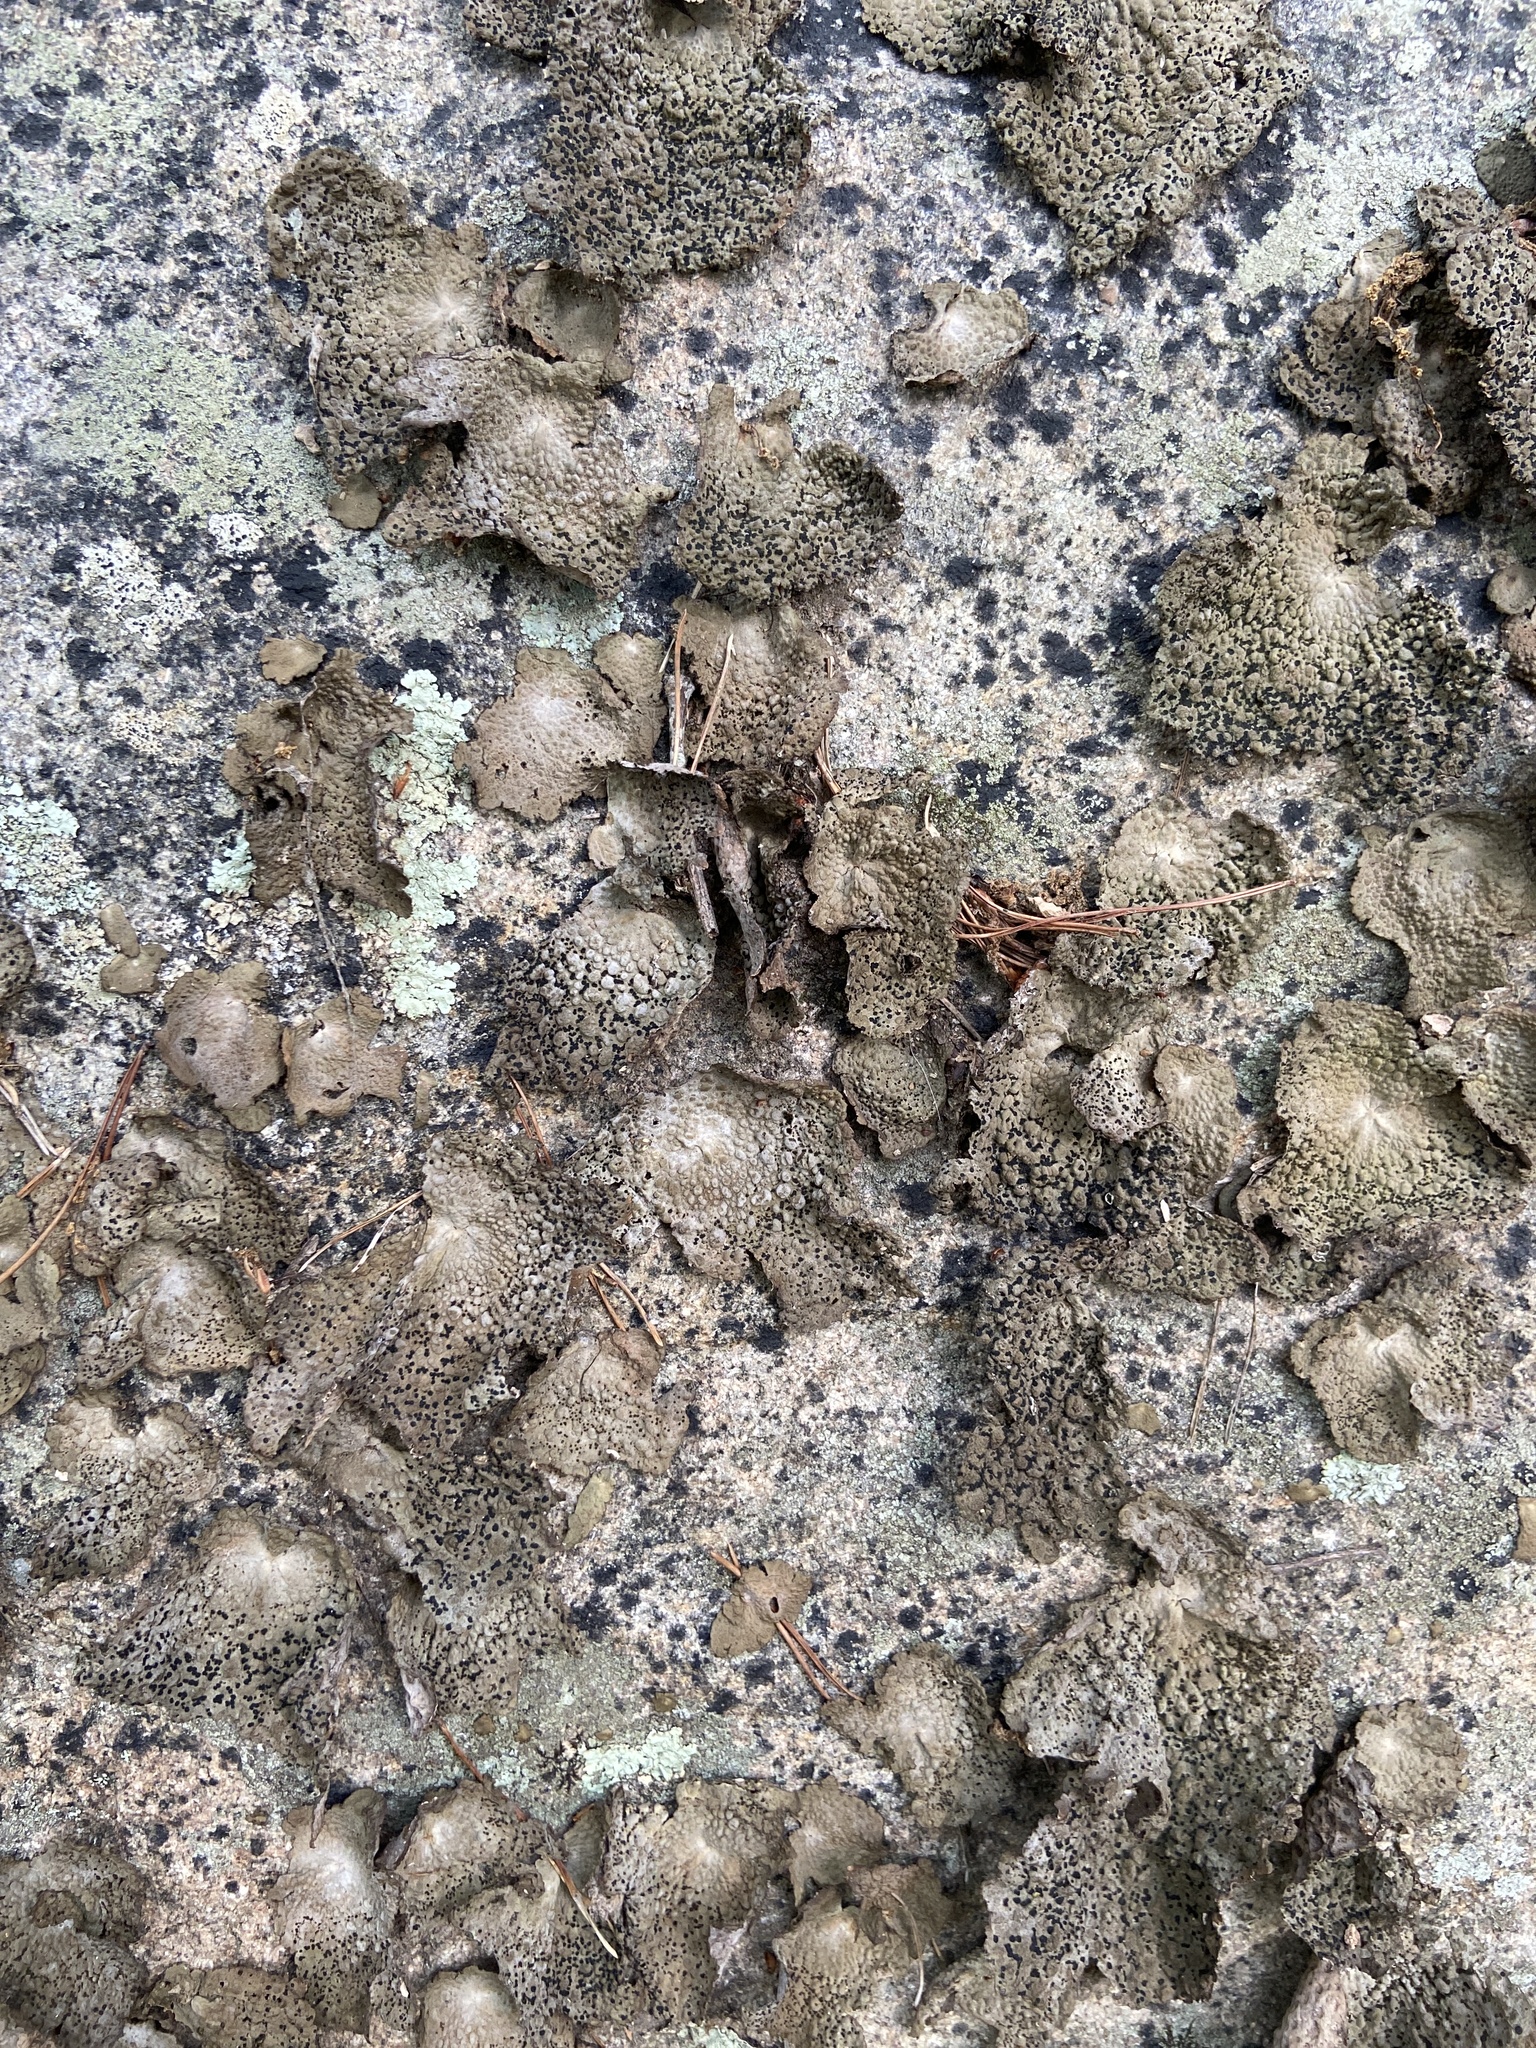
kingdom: Fungi
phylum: Ascomycota
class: Lecanoromycetes
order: Umbilicariales
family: Umbilicariaceae
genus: Lasallia
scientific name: Lasallia papulosa
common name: Common toadskin lichen
